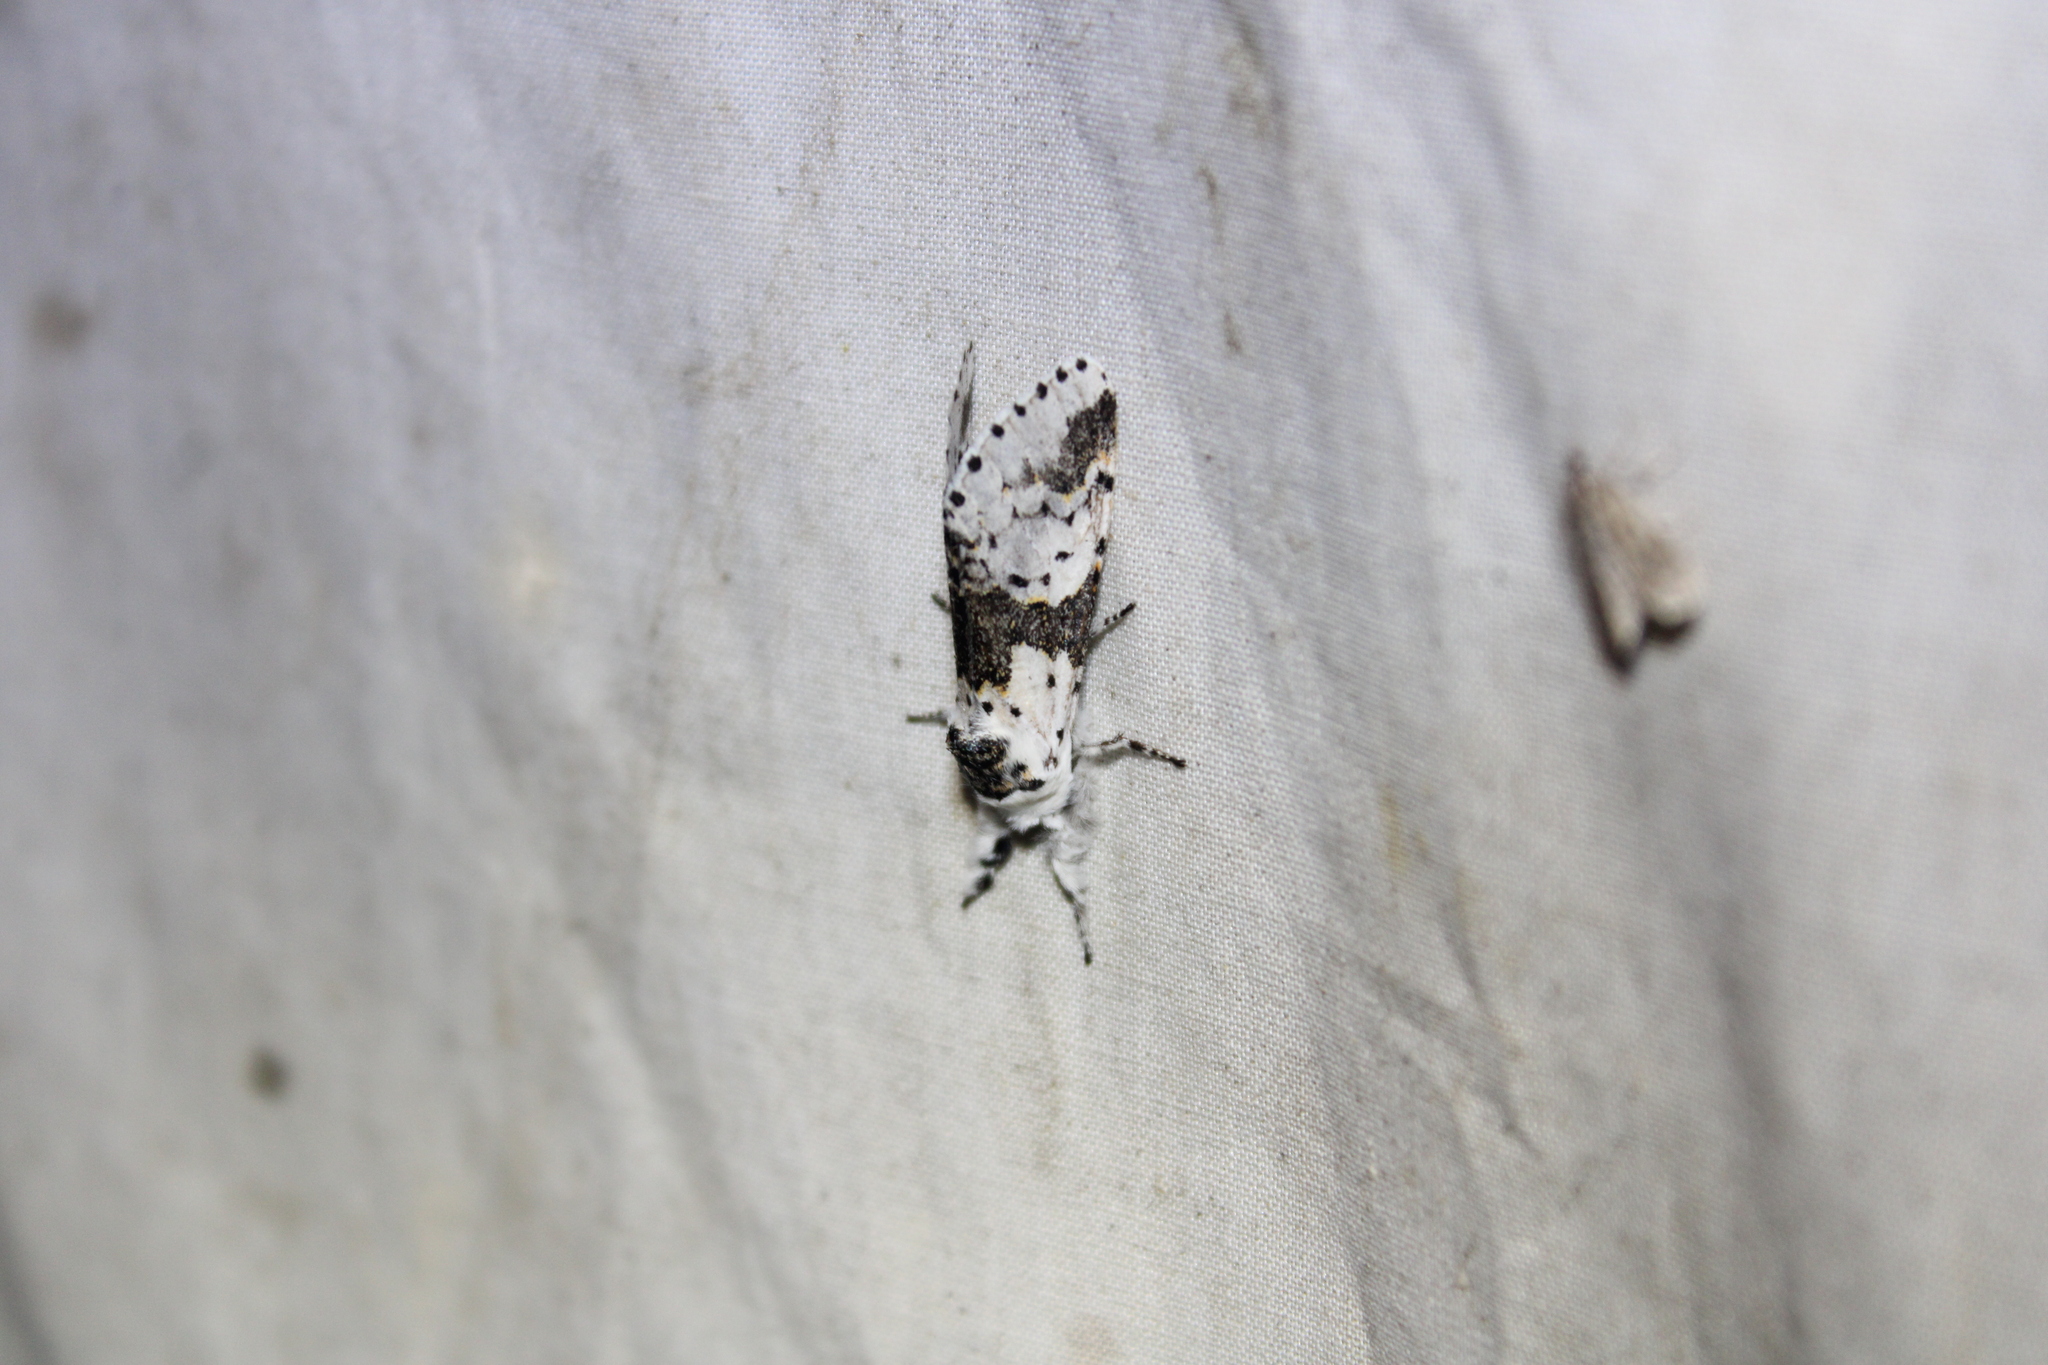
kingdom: Animalia
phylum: Arthropoda
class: Insecta
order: Lepidoptera
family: Notodontidae
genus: Furcula
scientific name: Furcula borealis
